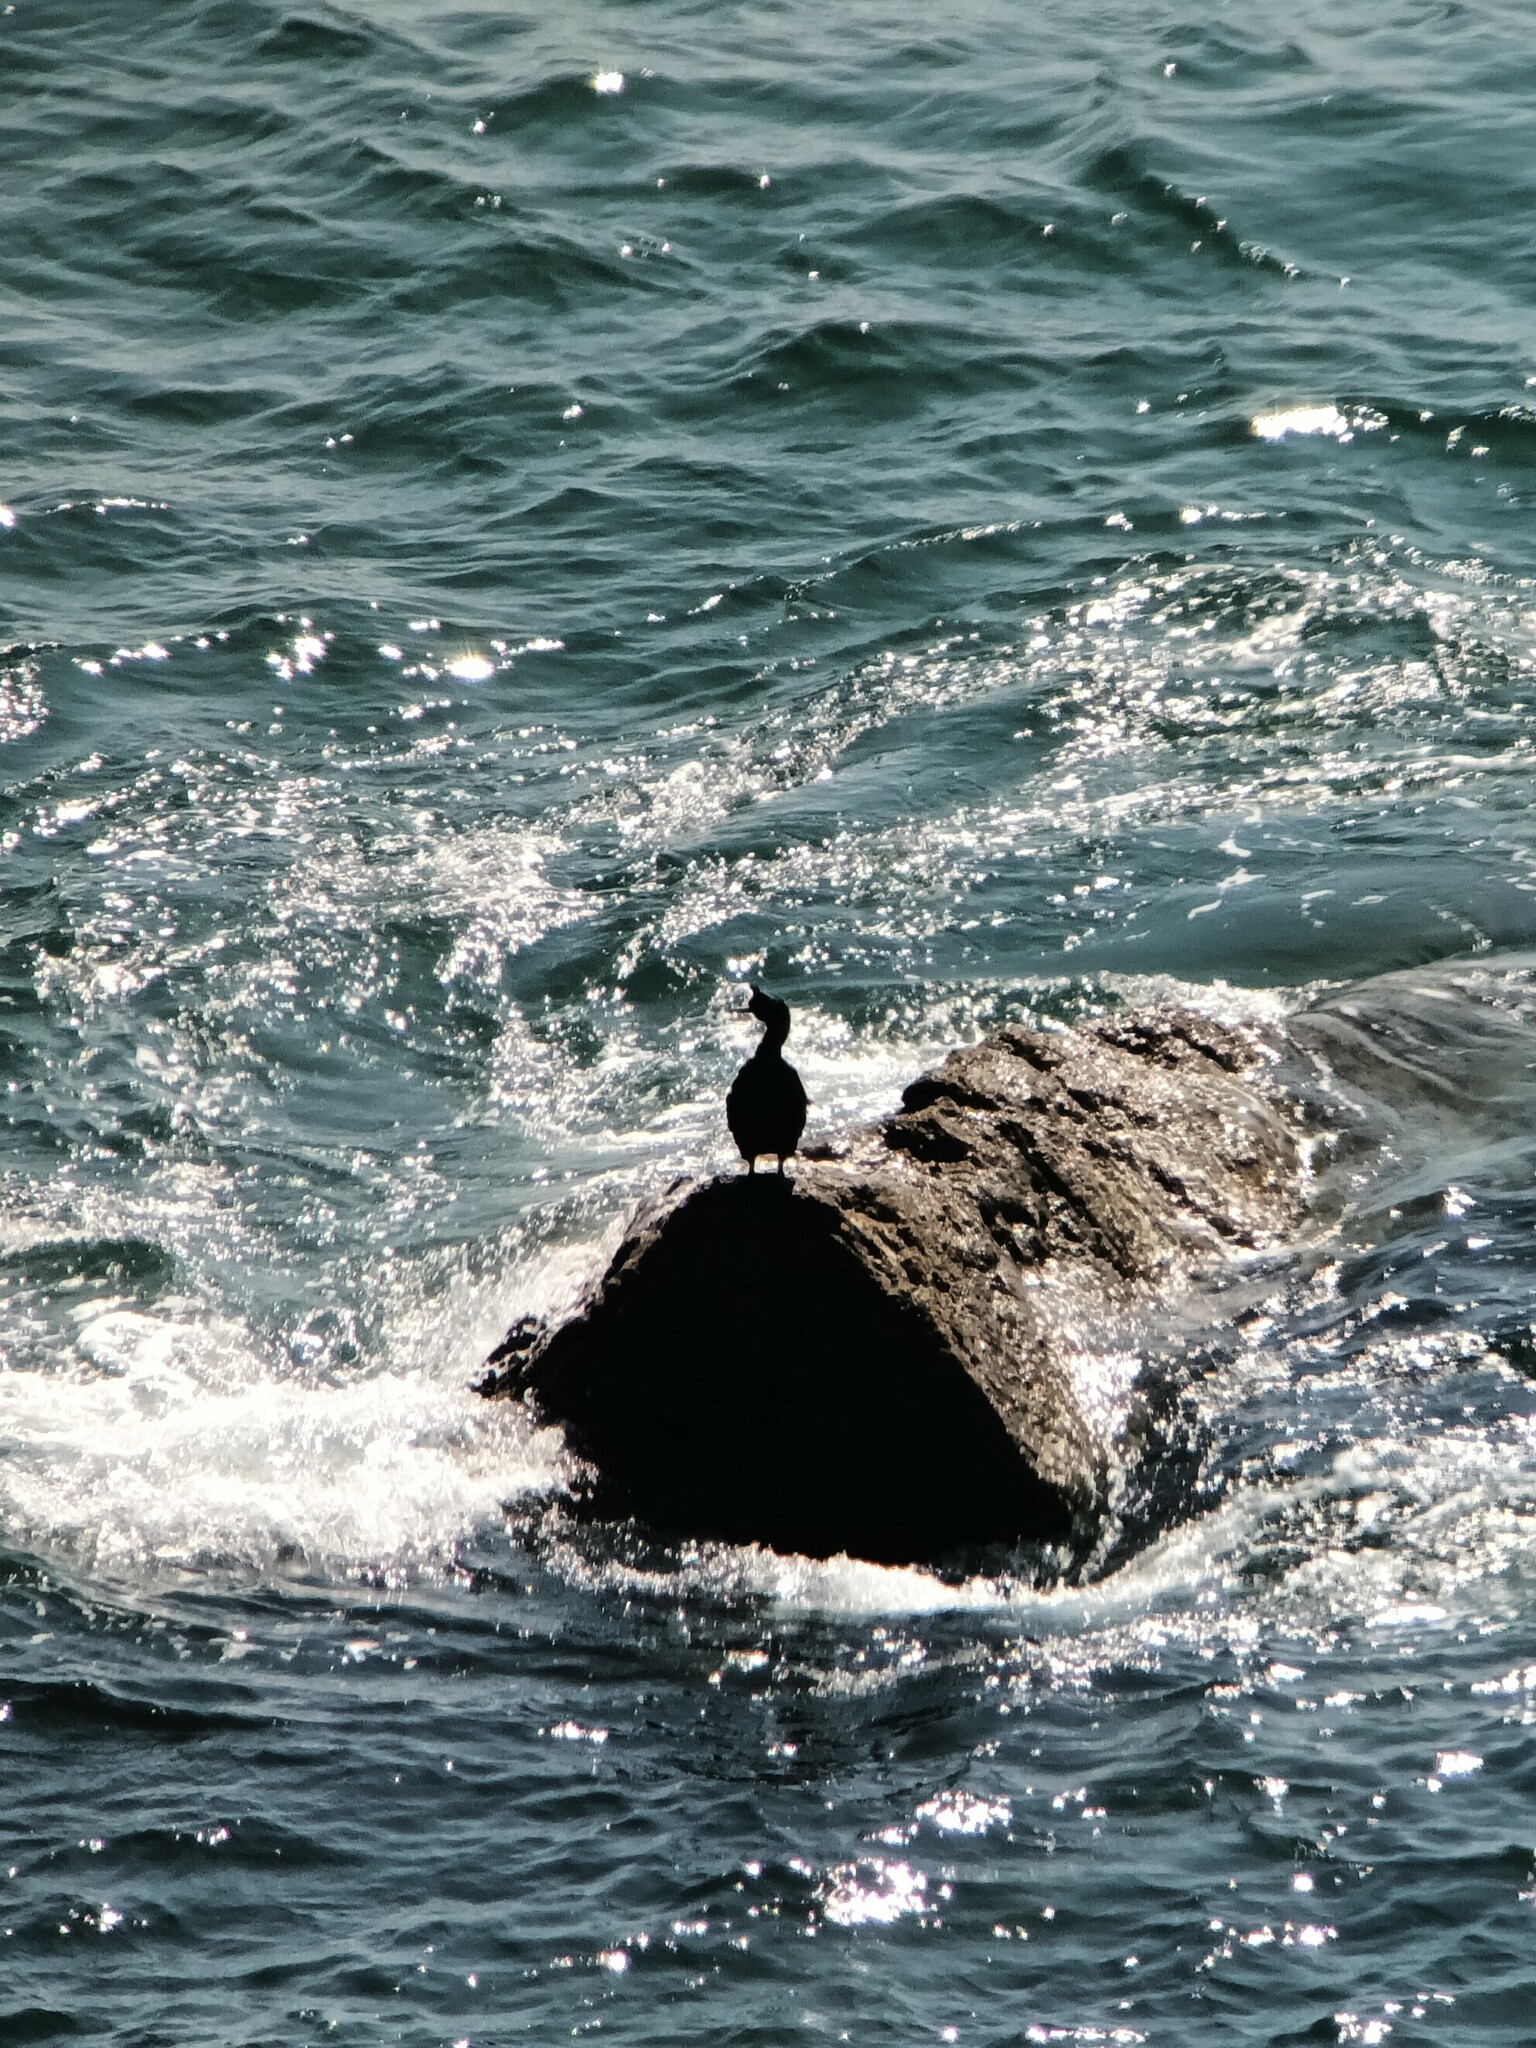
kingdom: Animalia
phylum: Chordata
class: Aves
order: Suliformes
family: Phalacrocoracidae
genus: Phalacrocorax
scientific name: Phalacrocorax aristotelis
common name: European shag
